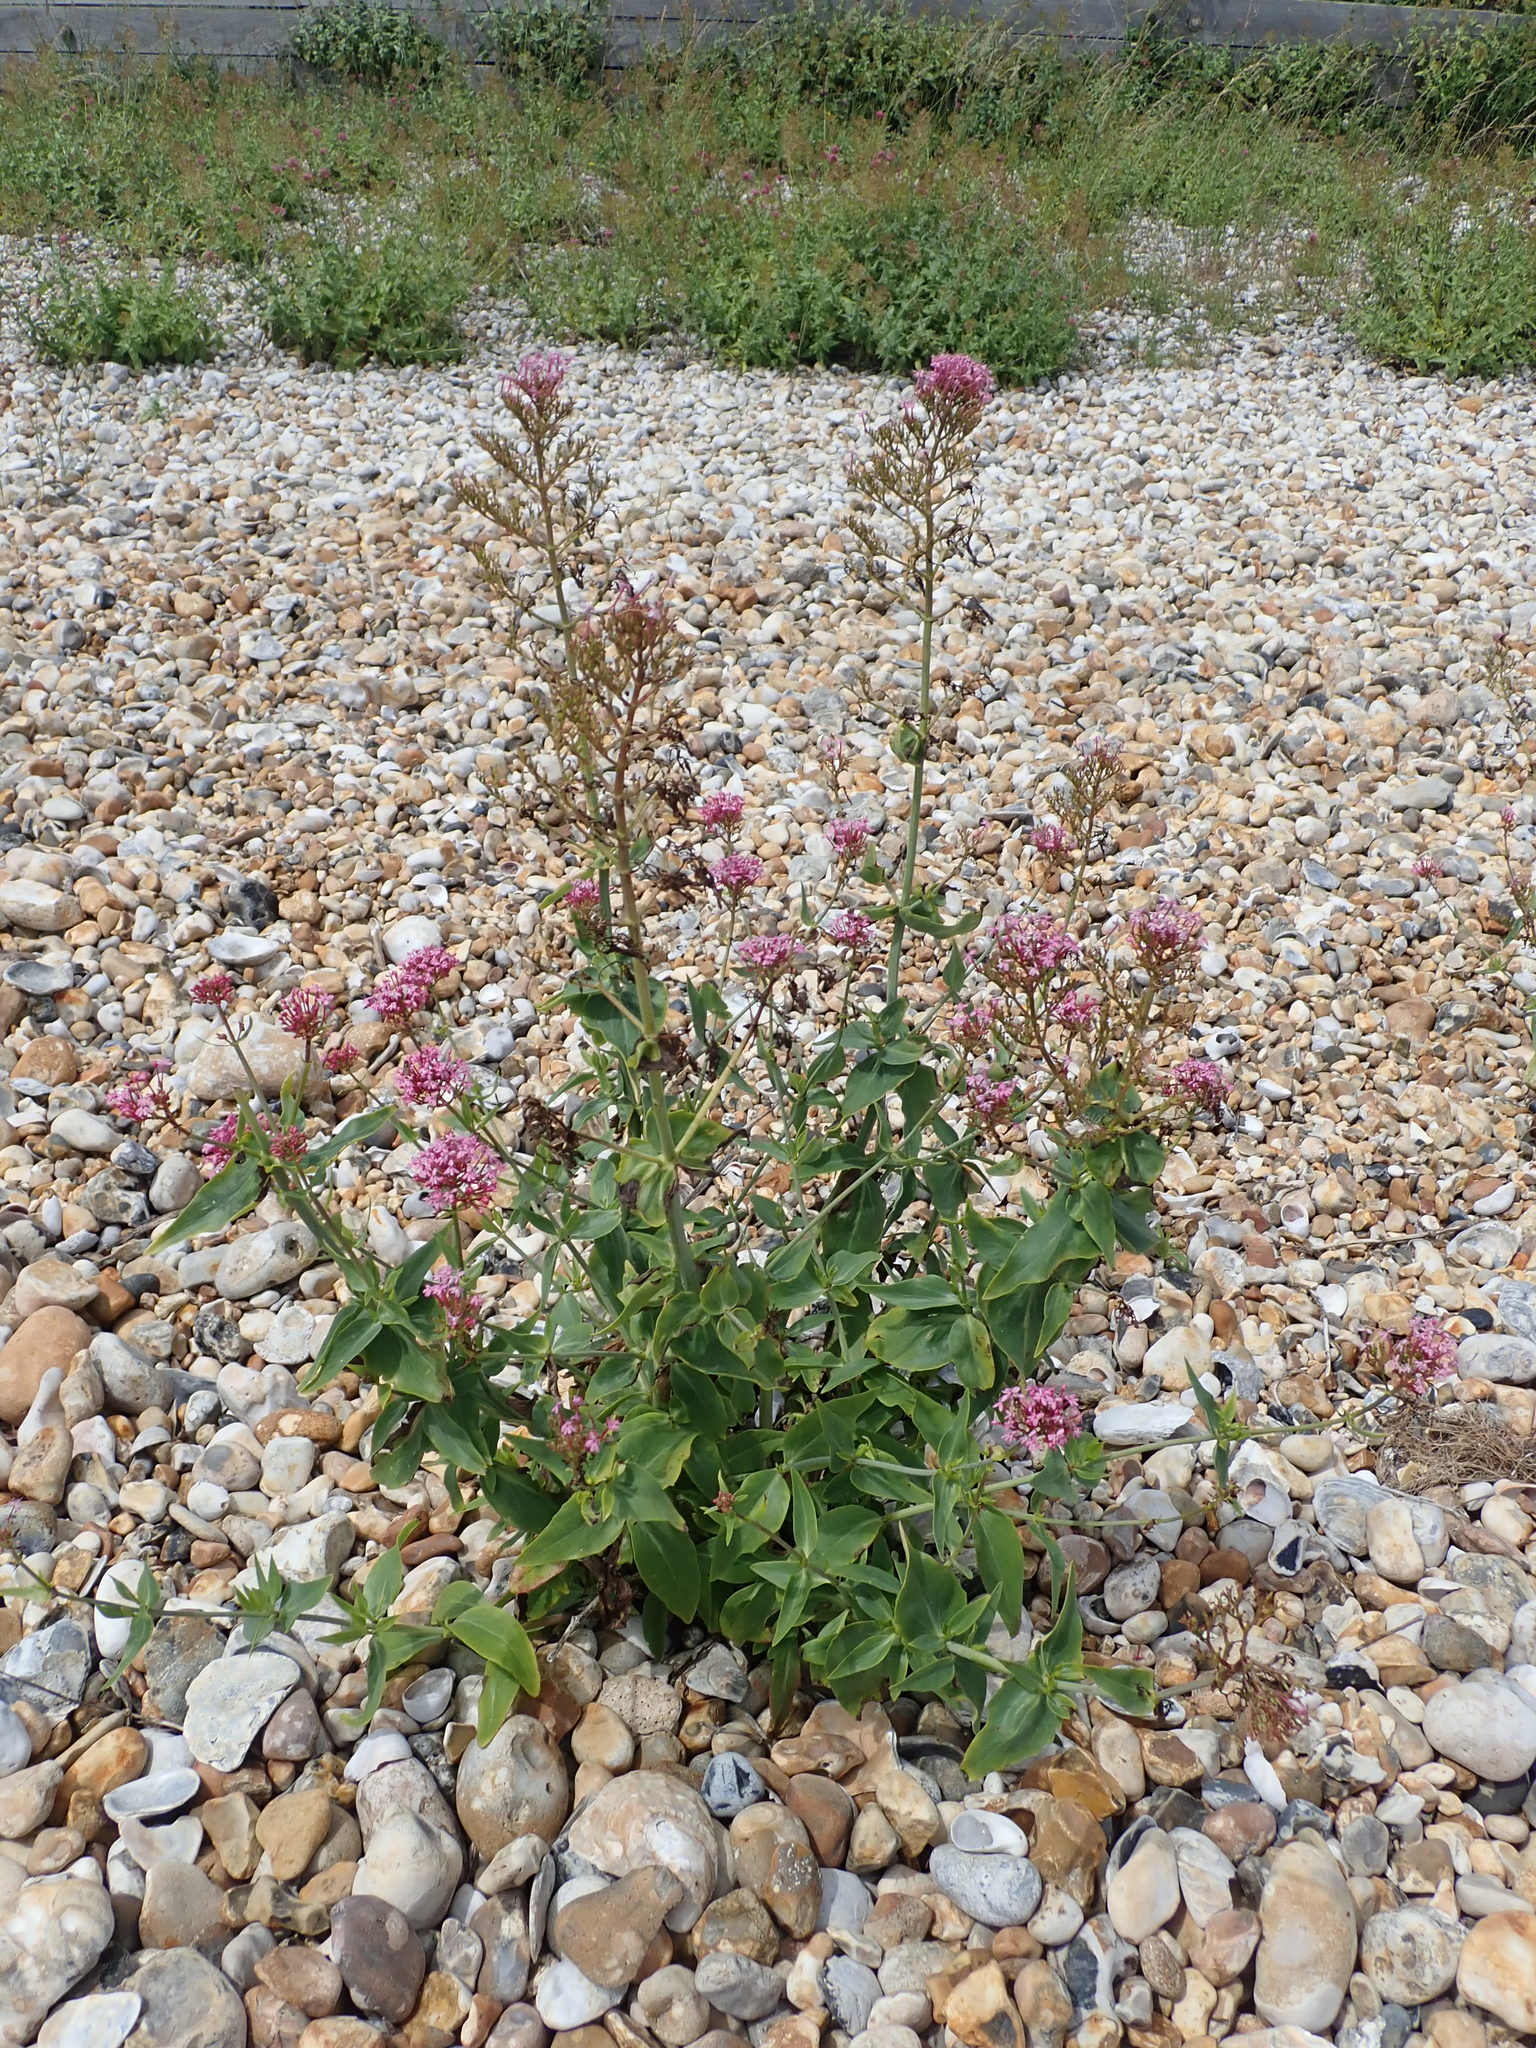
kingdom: Plantae
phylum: Tracheophyta
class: Magnoliopsida
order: Dipsacales
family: Caprifoliaceae
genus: Centranthus
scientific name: Centranthus ruber
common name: Red valerian
